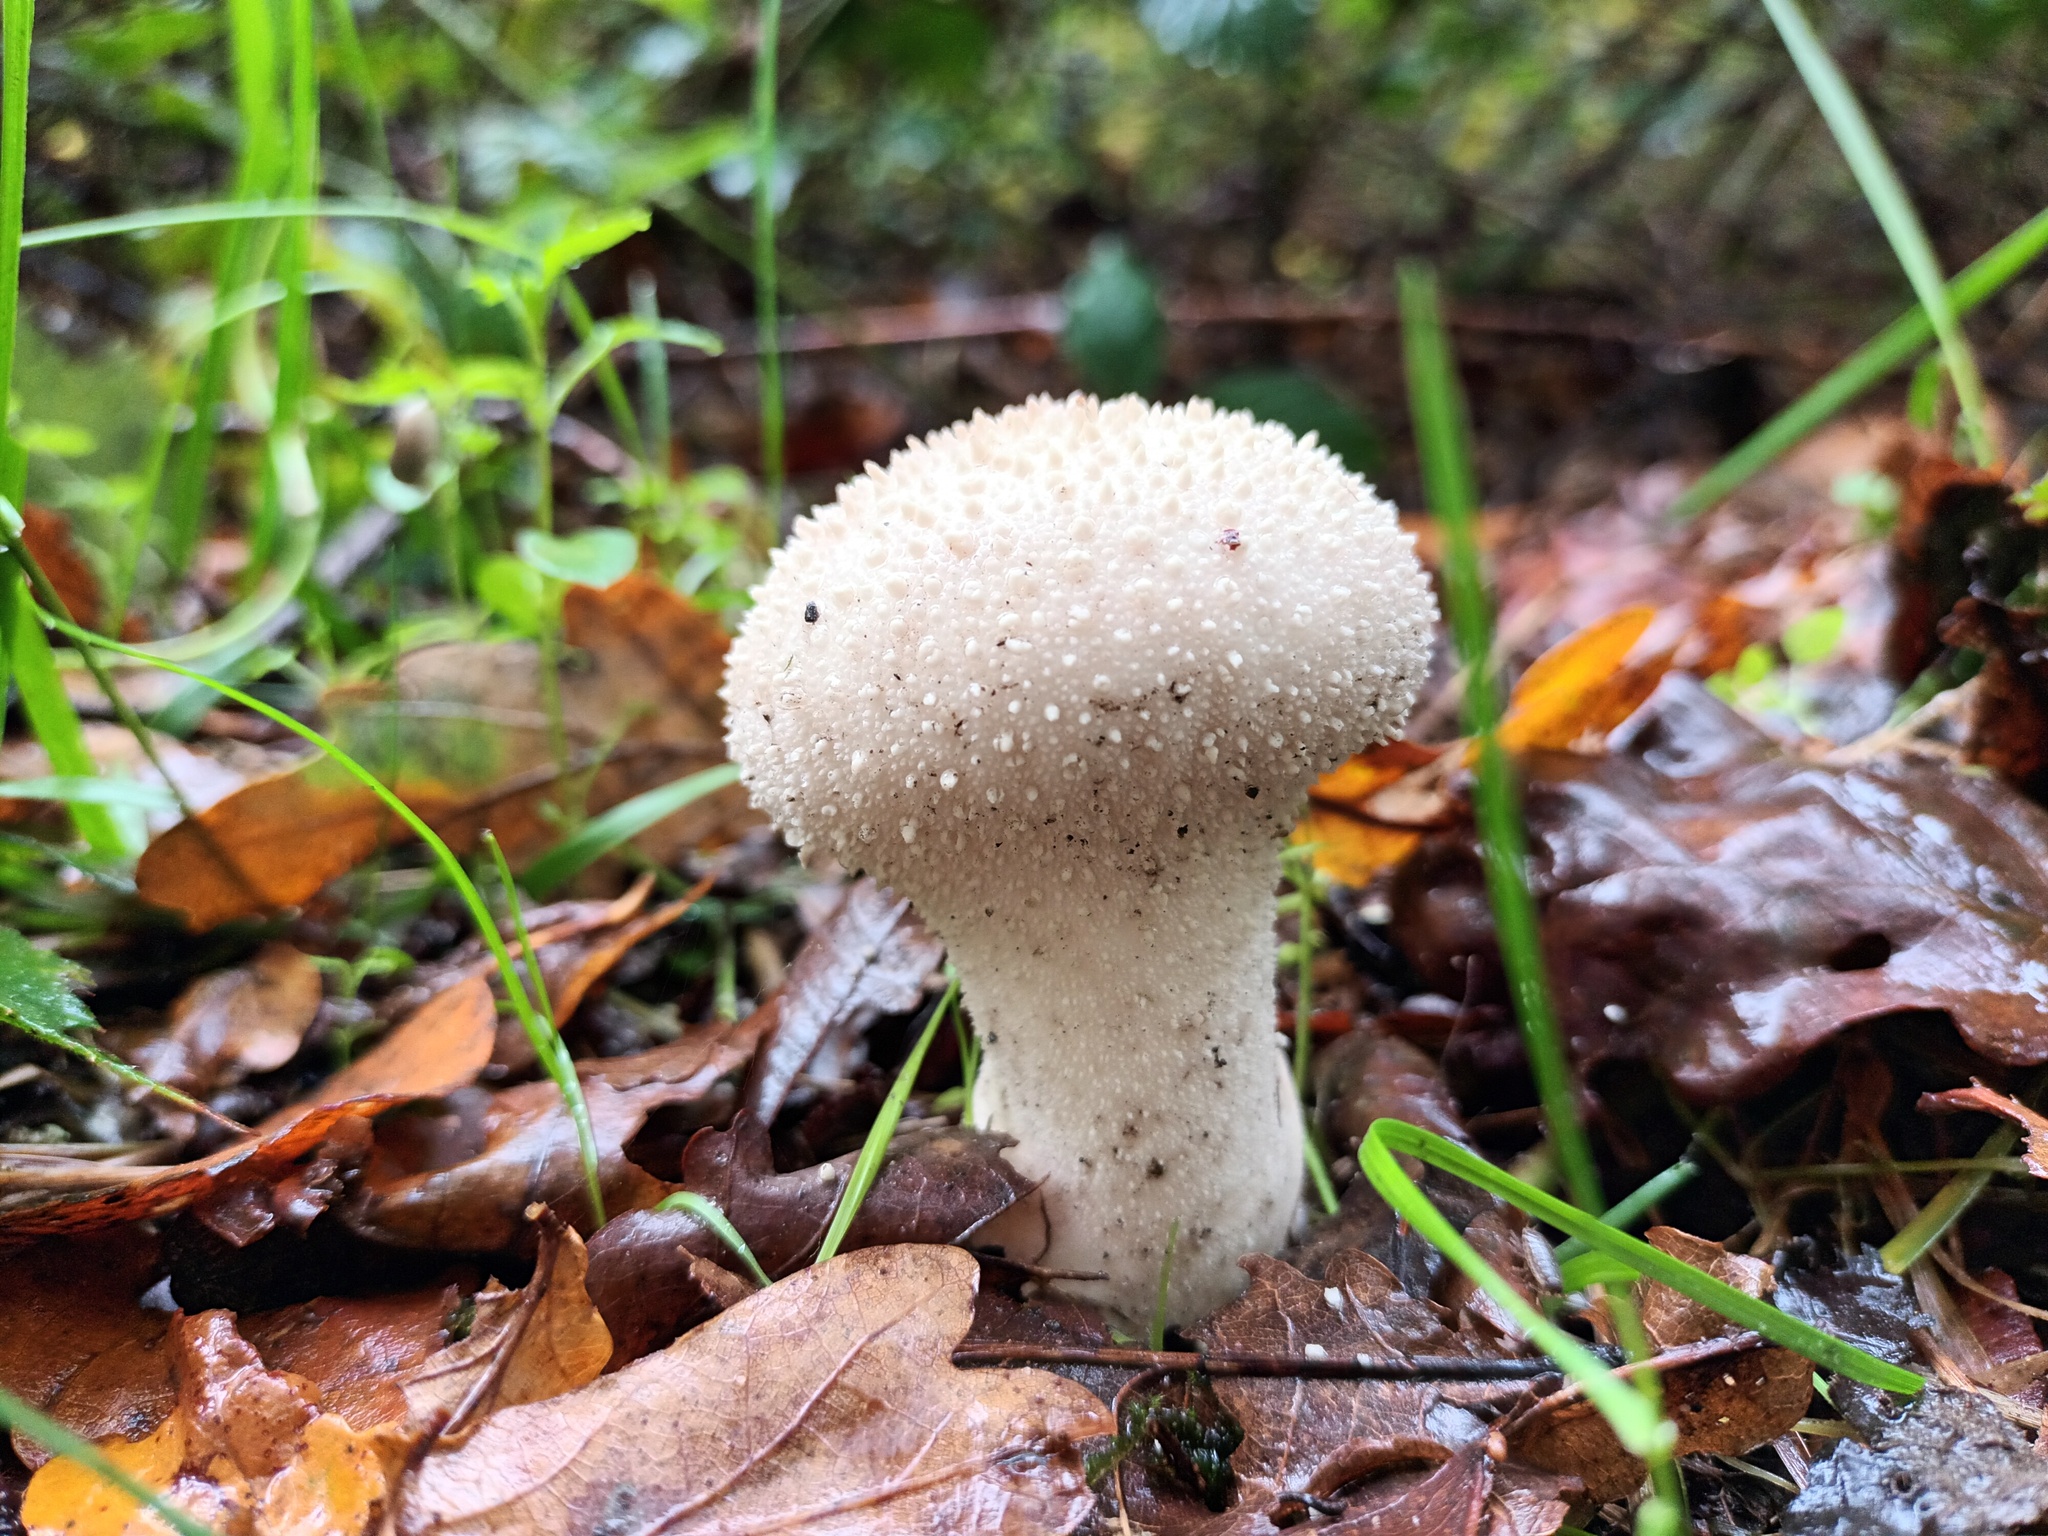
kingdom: Fungi
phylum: Basidiomycota
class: Agaricomycetes
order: Agaricales
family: Lycoperdaceae
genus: Lycoperdon
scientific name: Lycoperdon perlatum
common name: Common puffball
